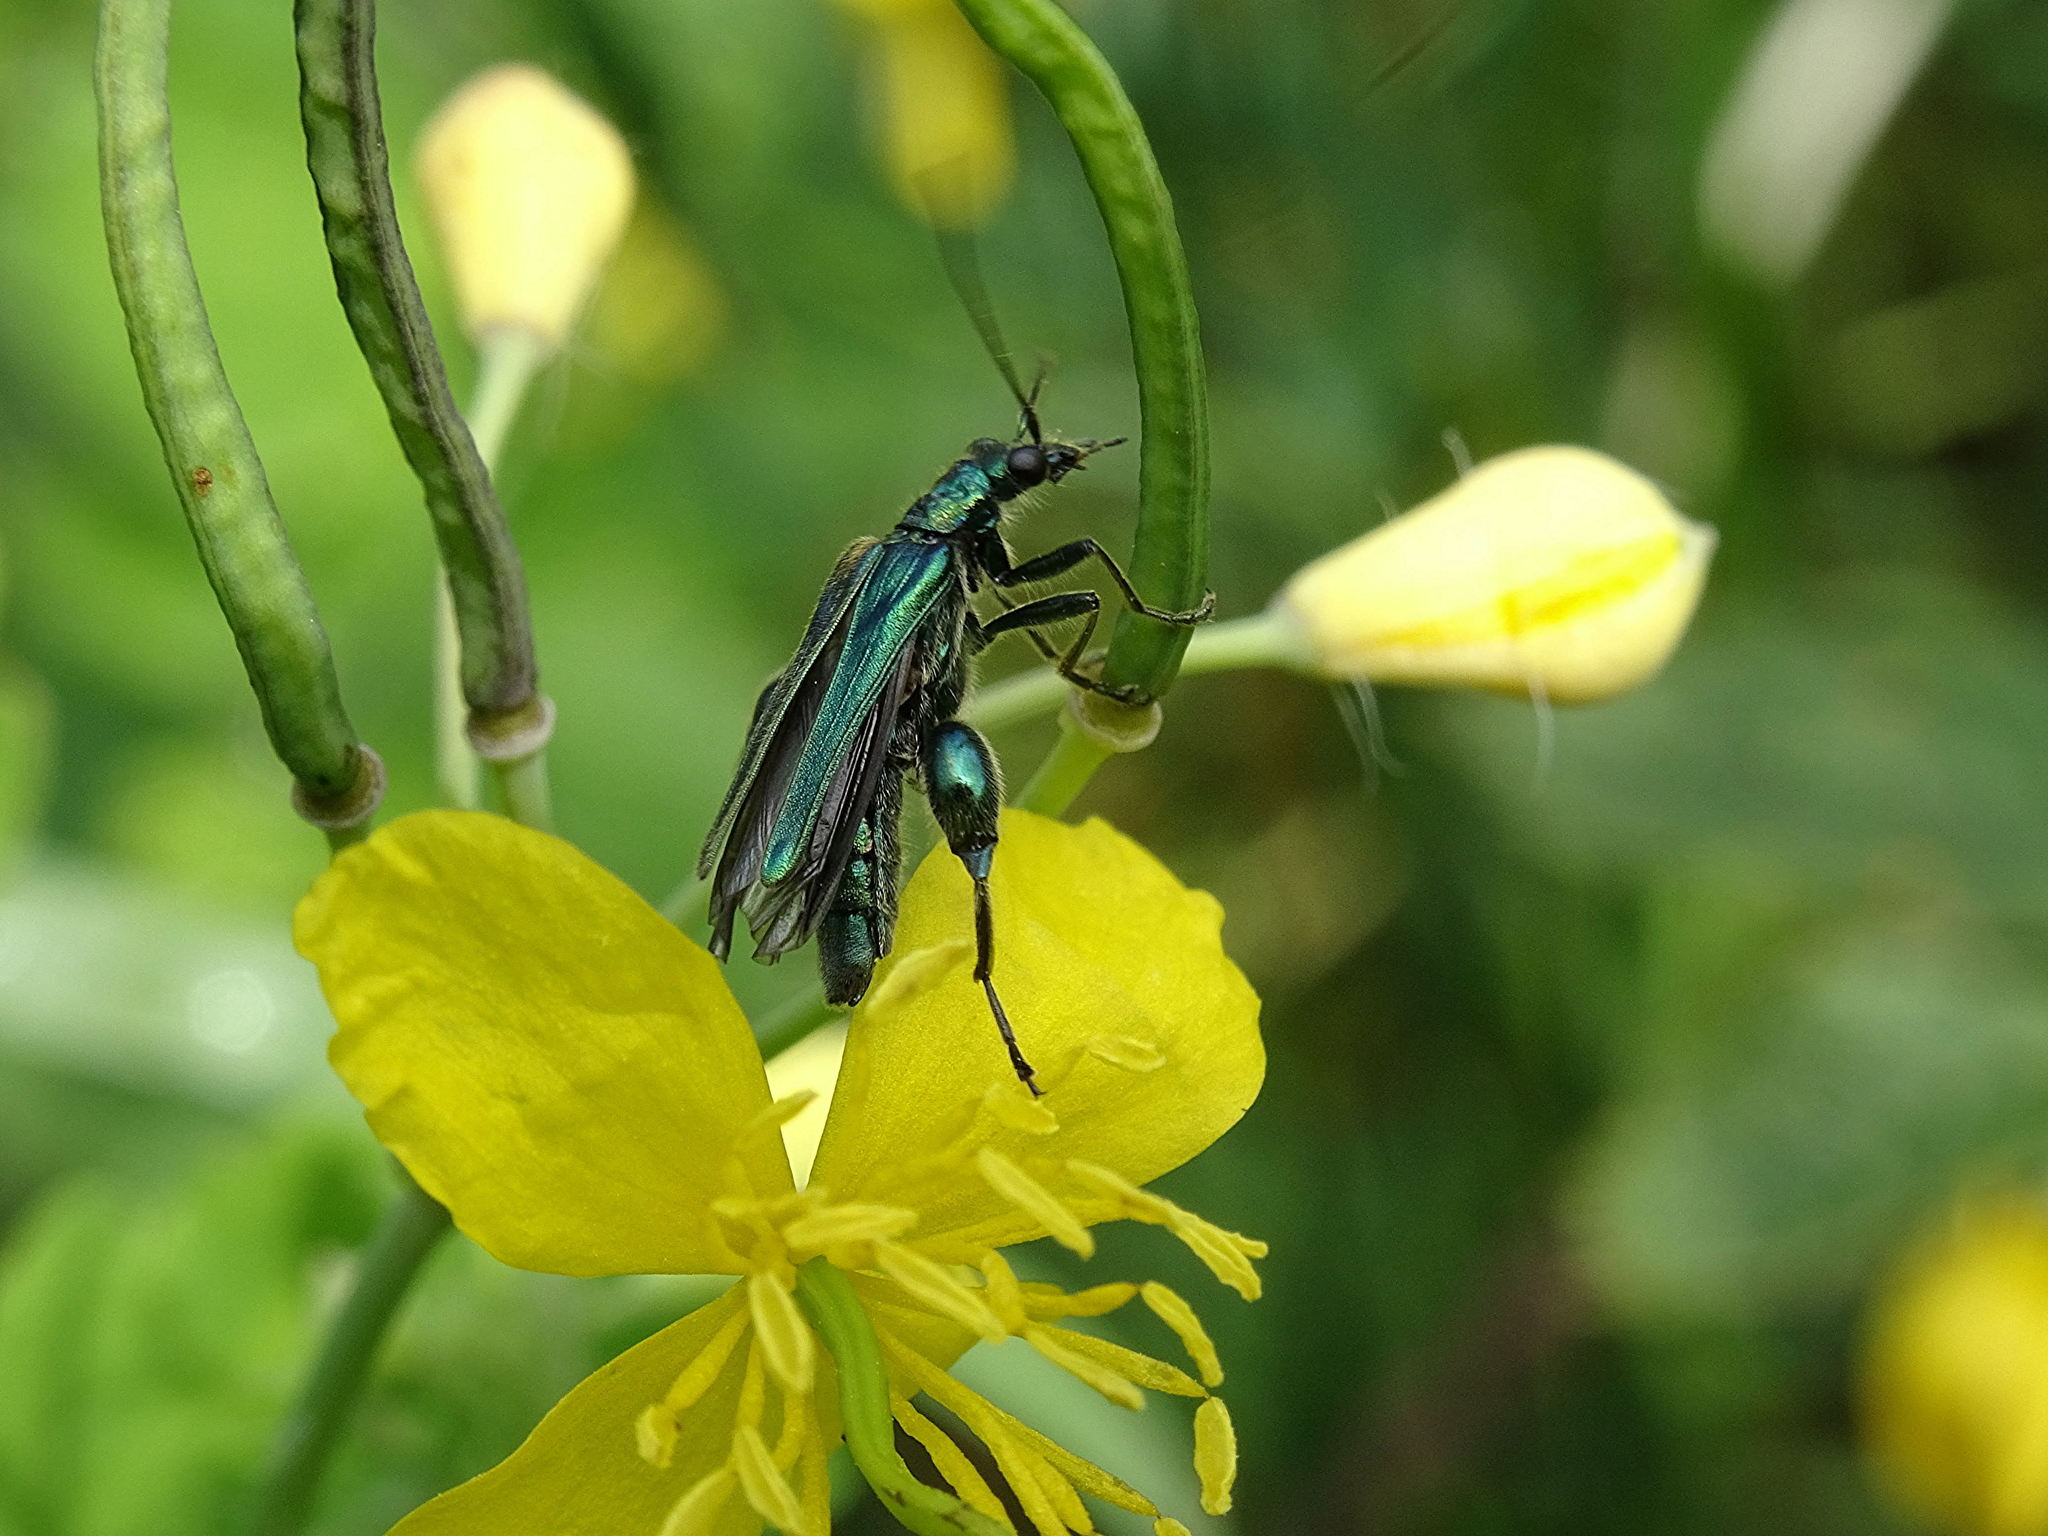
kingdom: Animalia
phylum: Arthropoda
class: Insecta
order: Coleoptera
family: Oedemeridae
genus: Oedemera
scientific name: Oedemera nobilis
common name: Swollen-thighed beetle
